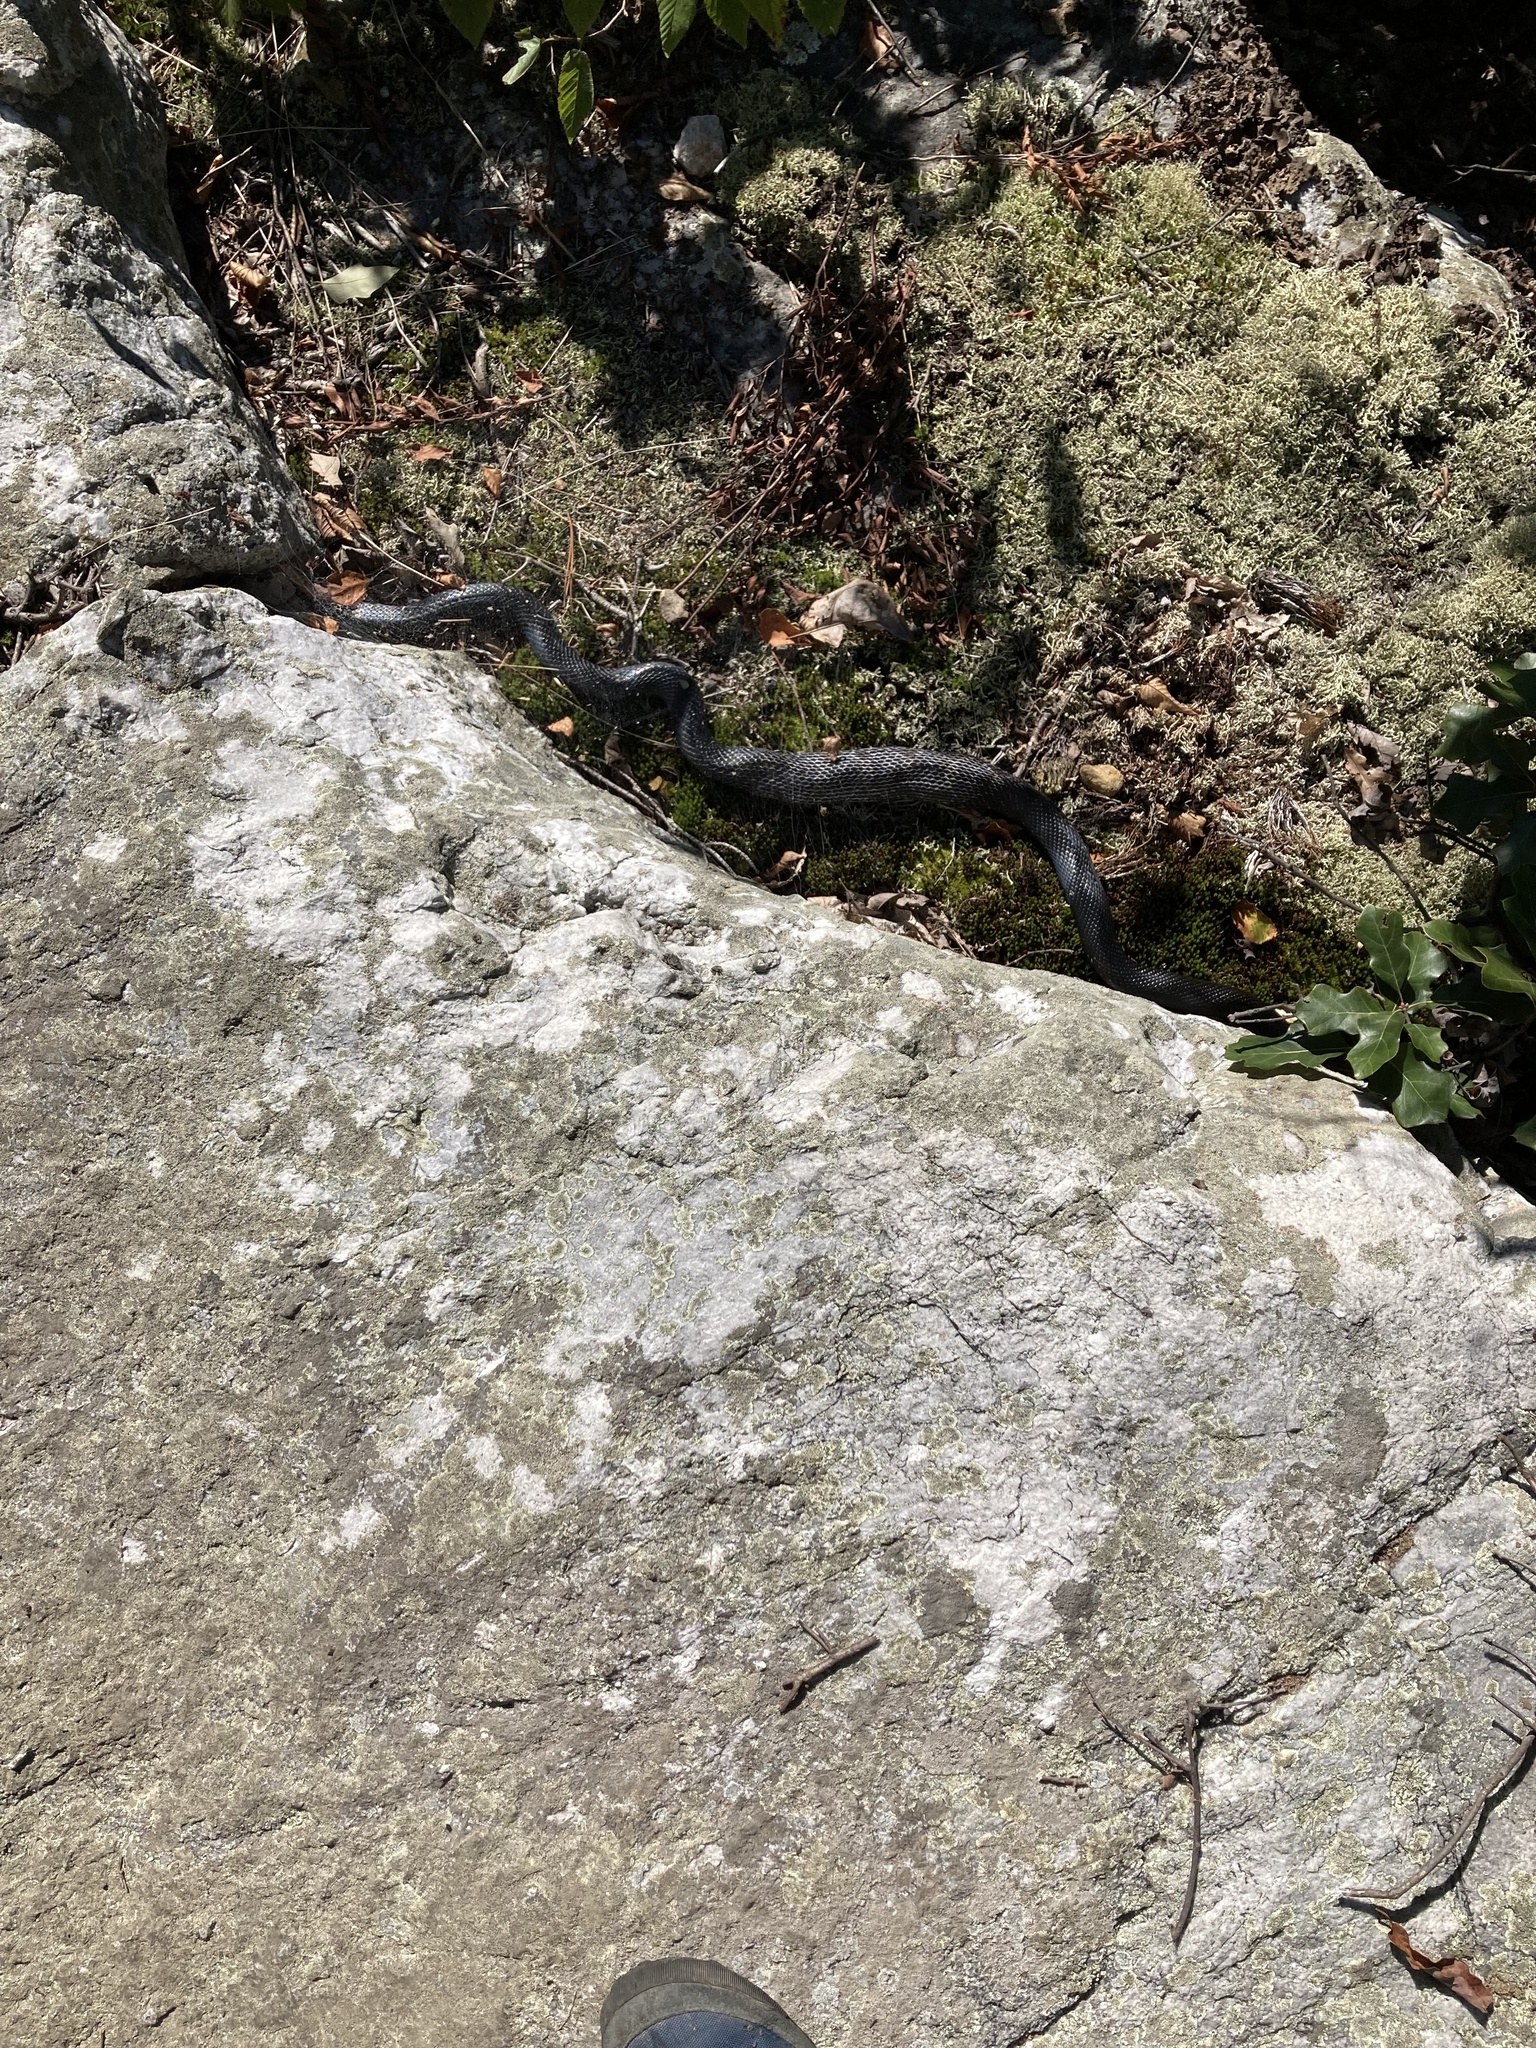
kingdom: Animalia
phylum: Chordata
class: Squamata
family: Colubridae
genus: Pantherophis
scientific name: Pantherophis alleghaniensis
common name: Eastern rat snake
